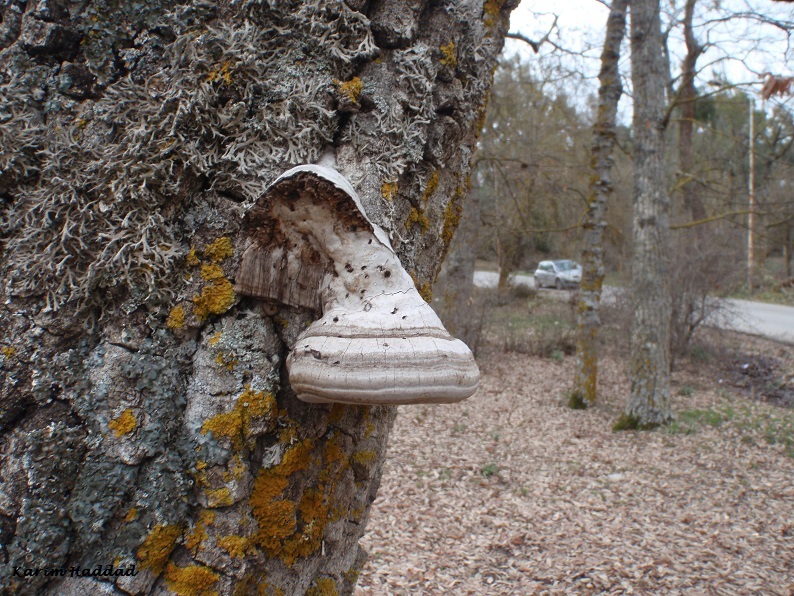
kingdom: Fungi
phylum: Basidiomycota
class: Agaricomycetes
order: Polyporales
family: Polyporaceae
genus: Fomes
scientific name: Fomes fomentarius
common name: Hoof fungus
